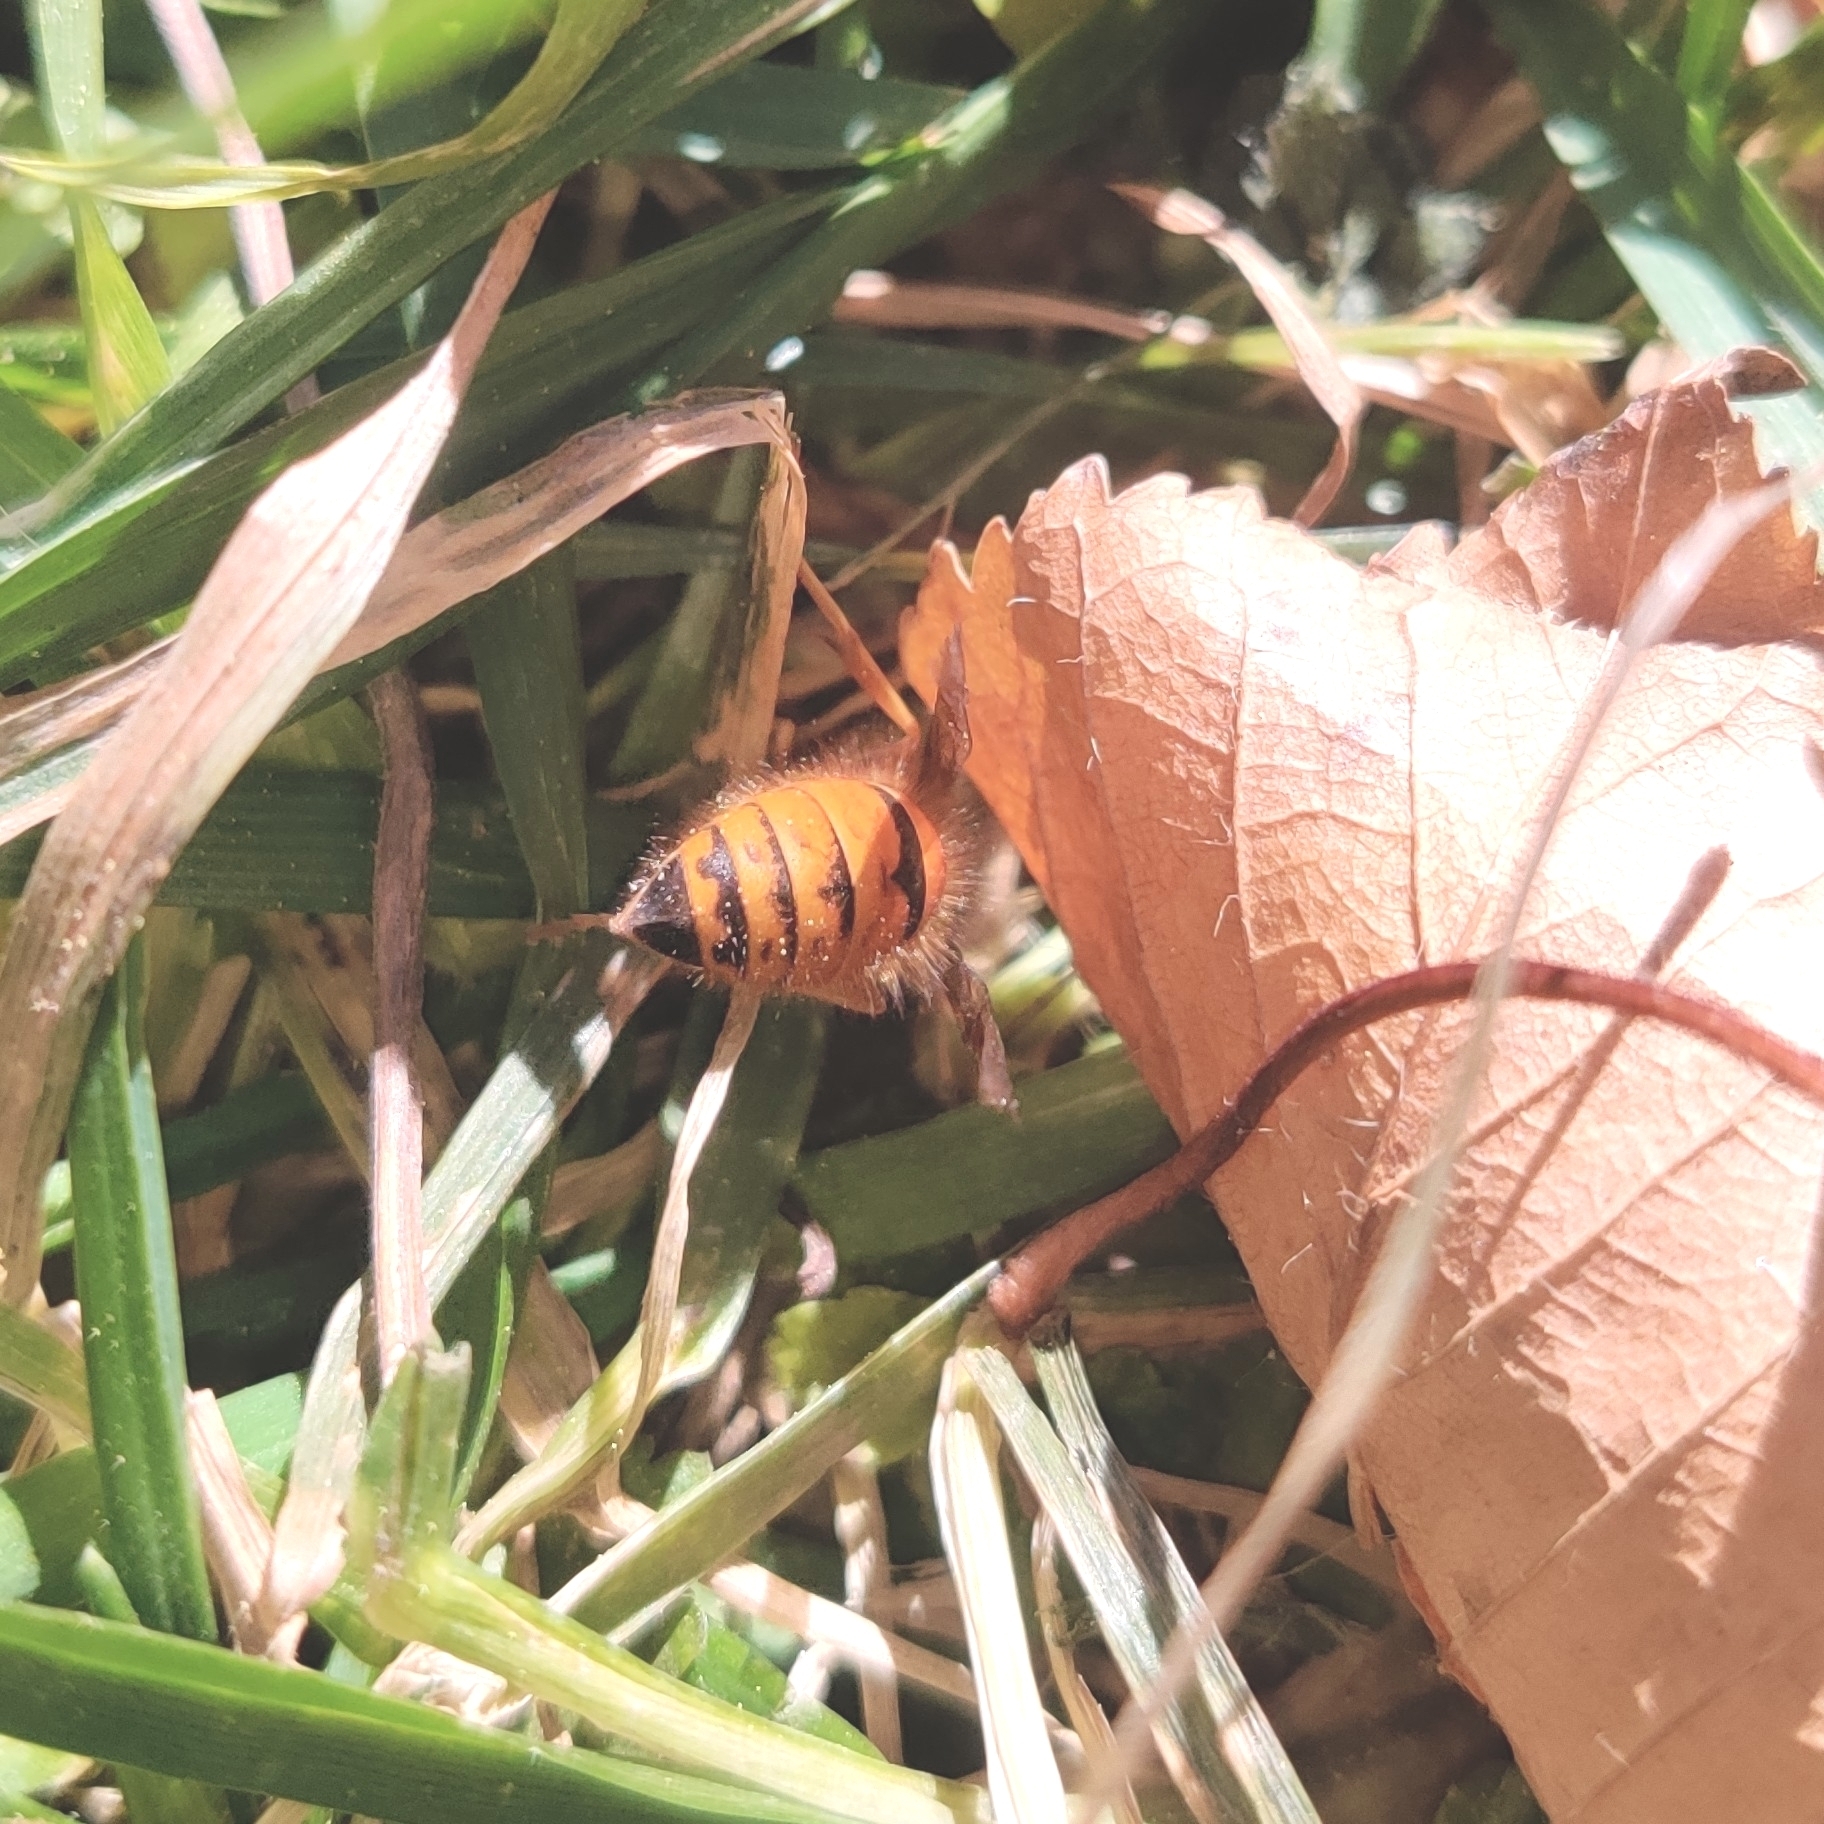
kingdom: Animalia
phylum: Arthropoda
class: Insecta
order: Hymenoptera
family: Vespidae
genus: Vespula
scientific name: Vespula structor
